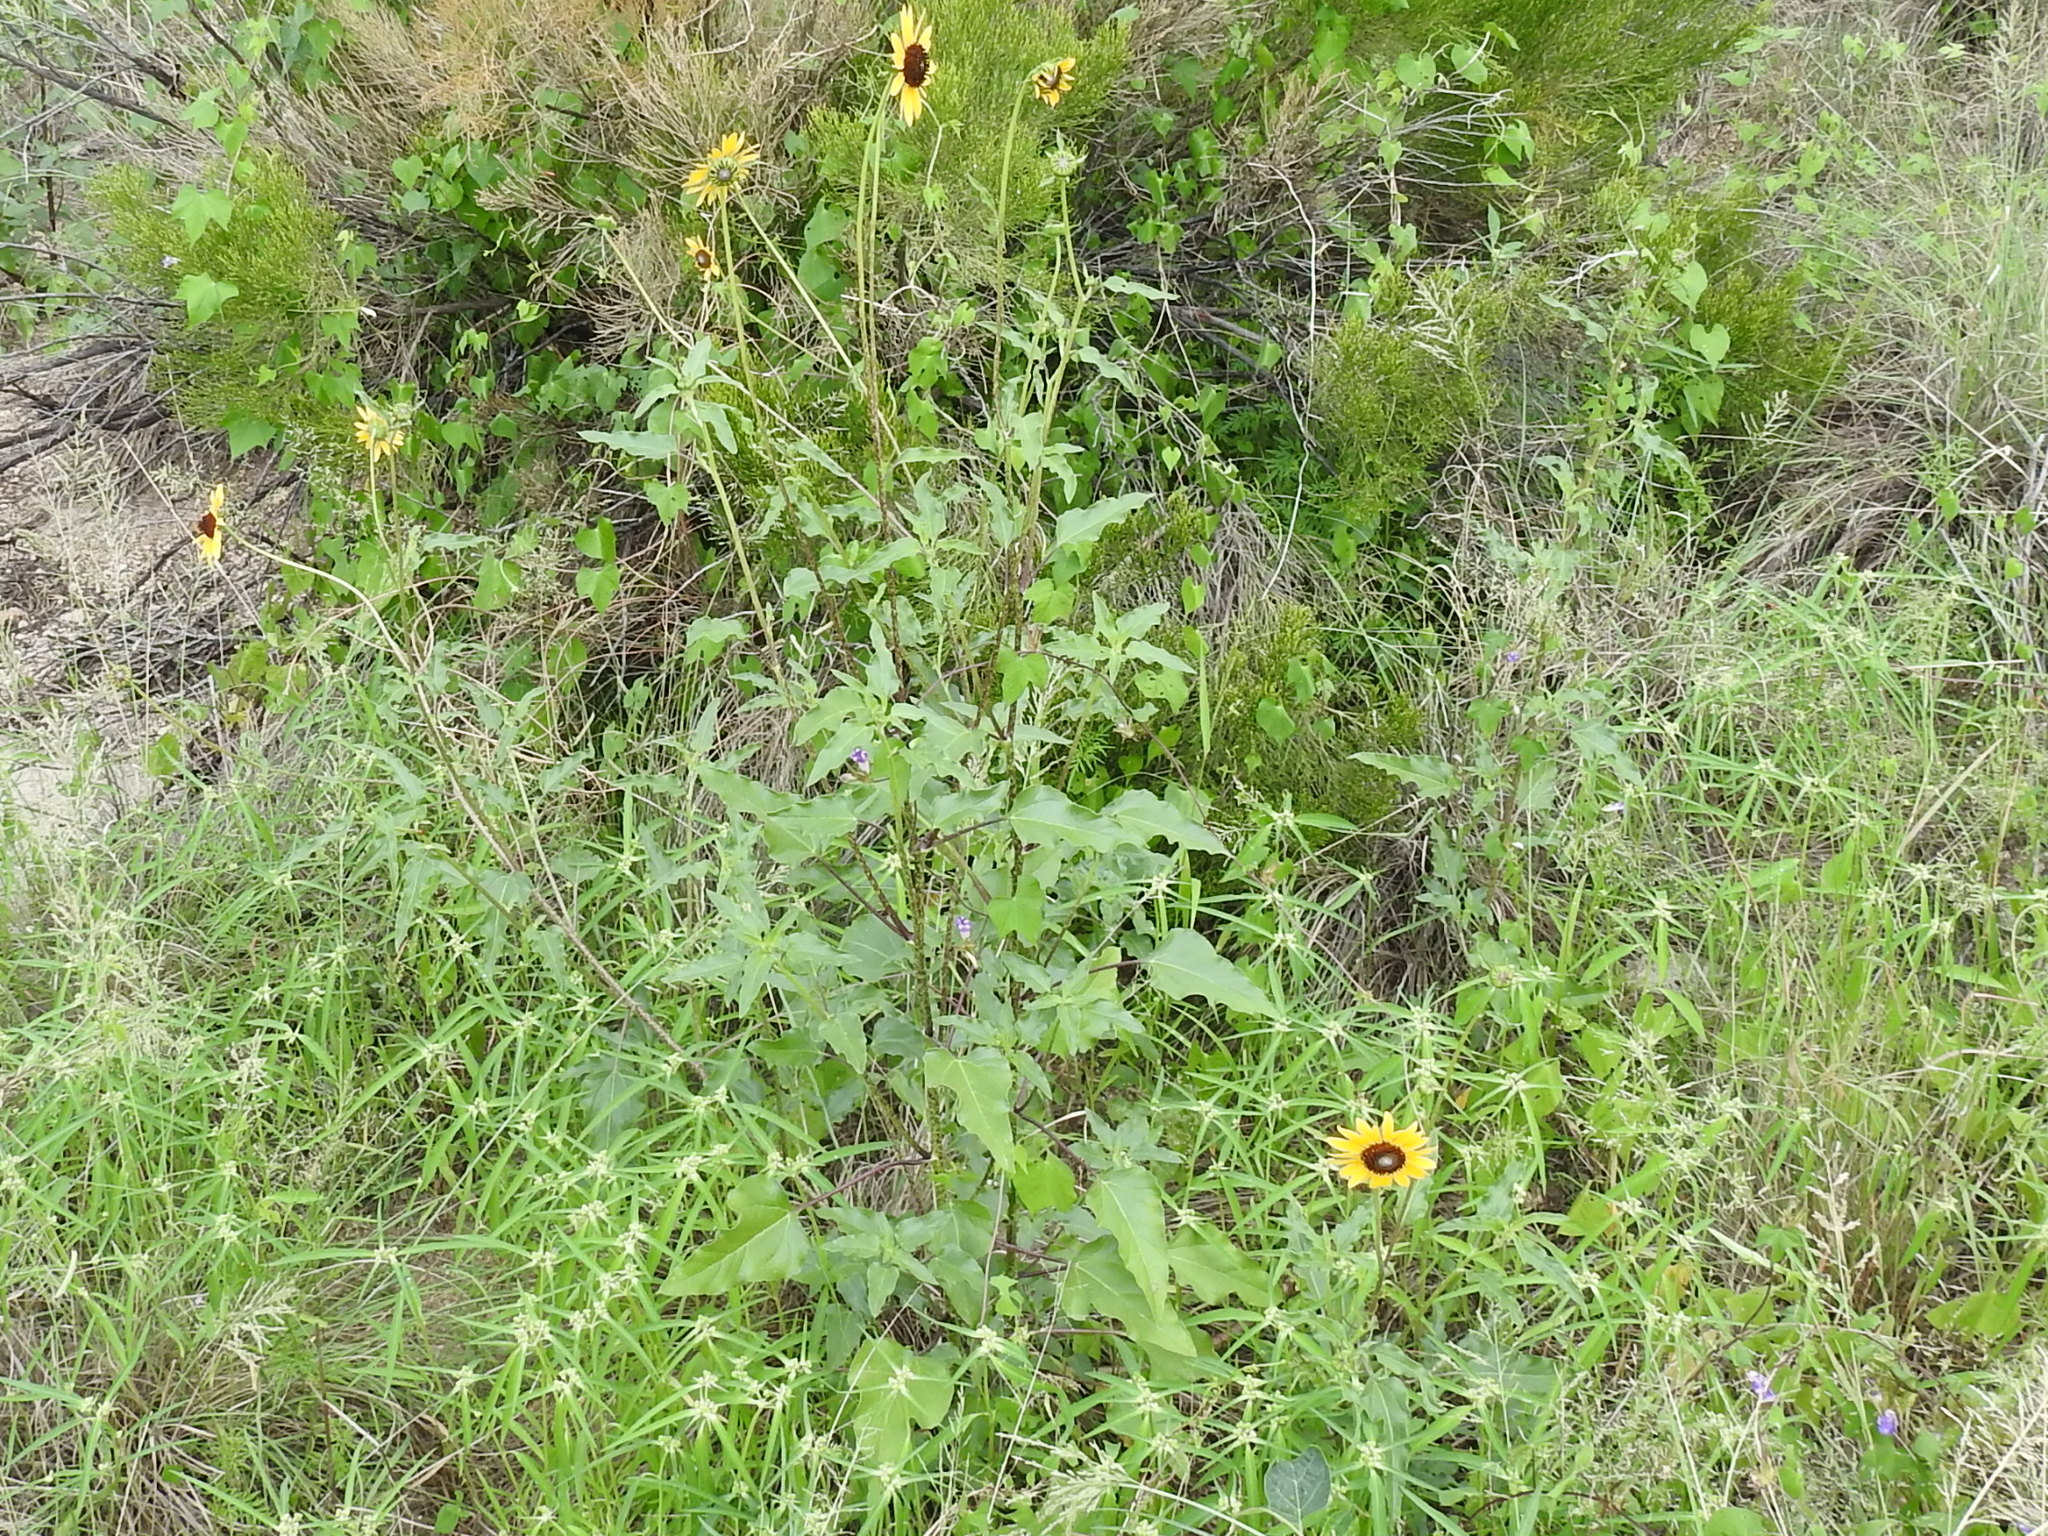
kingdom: Plantae
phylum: Tracheophyta
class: Magnoliopsida
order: Asterales
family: Asteraceae
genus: Helianthus
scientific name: Helianthus petiolaris
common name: Lesser sunflower
